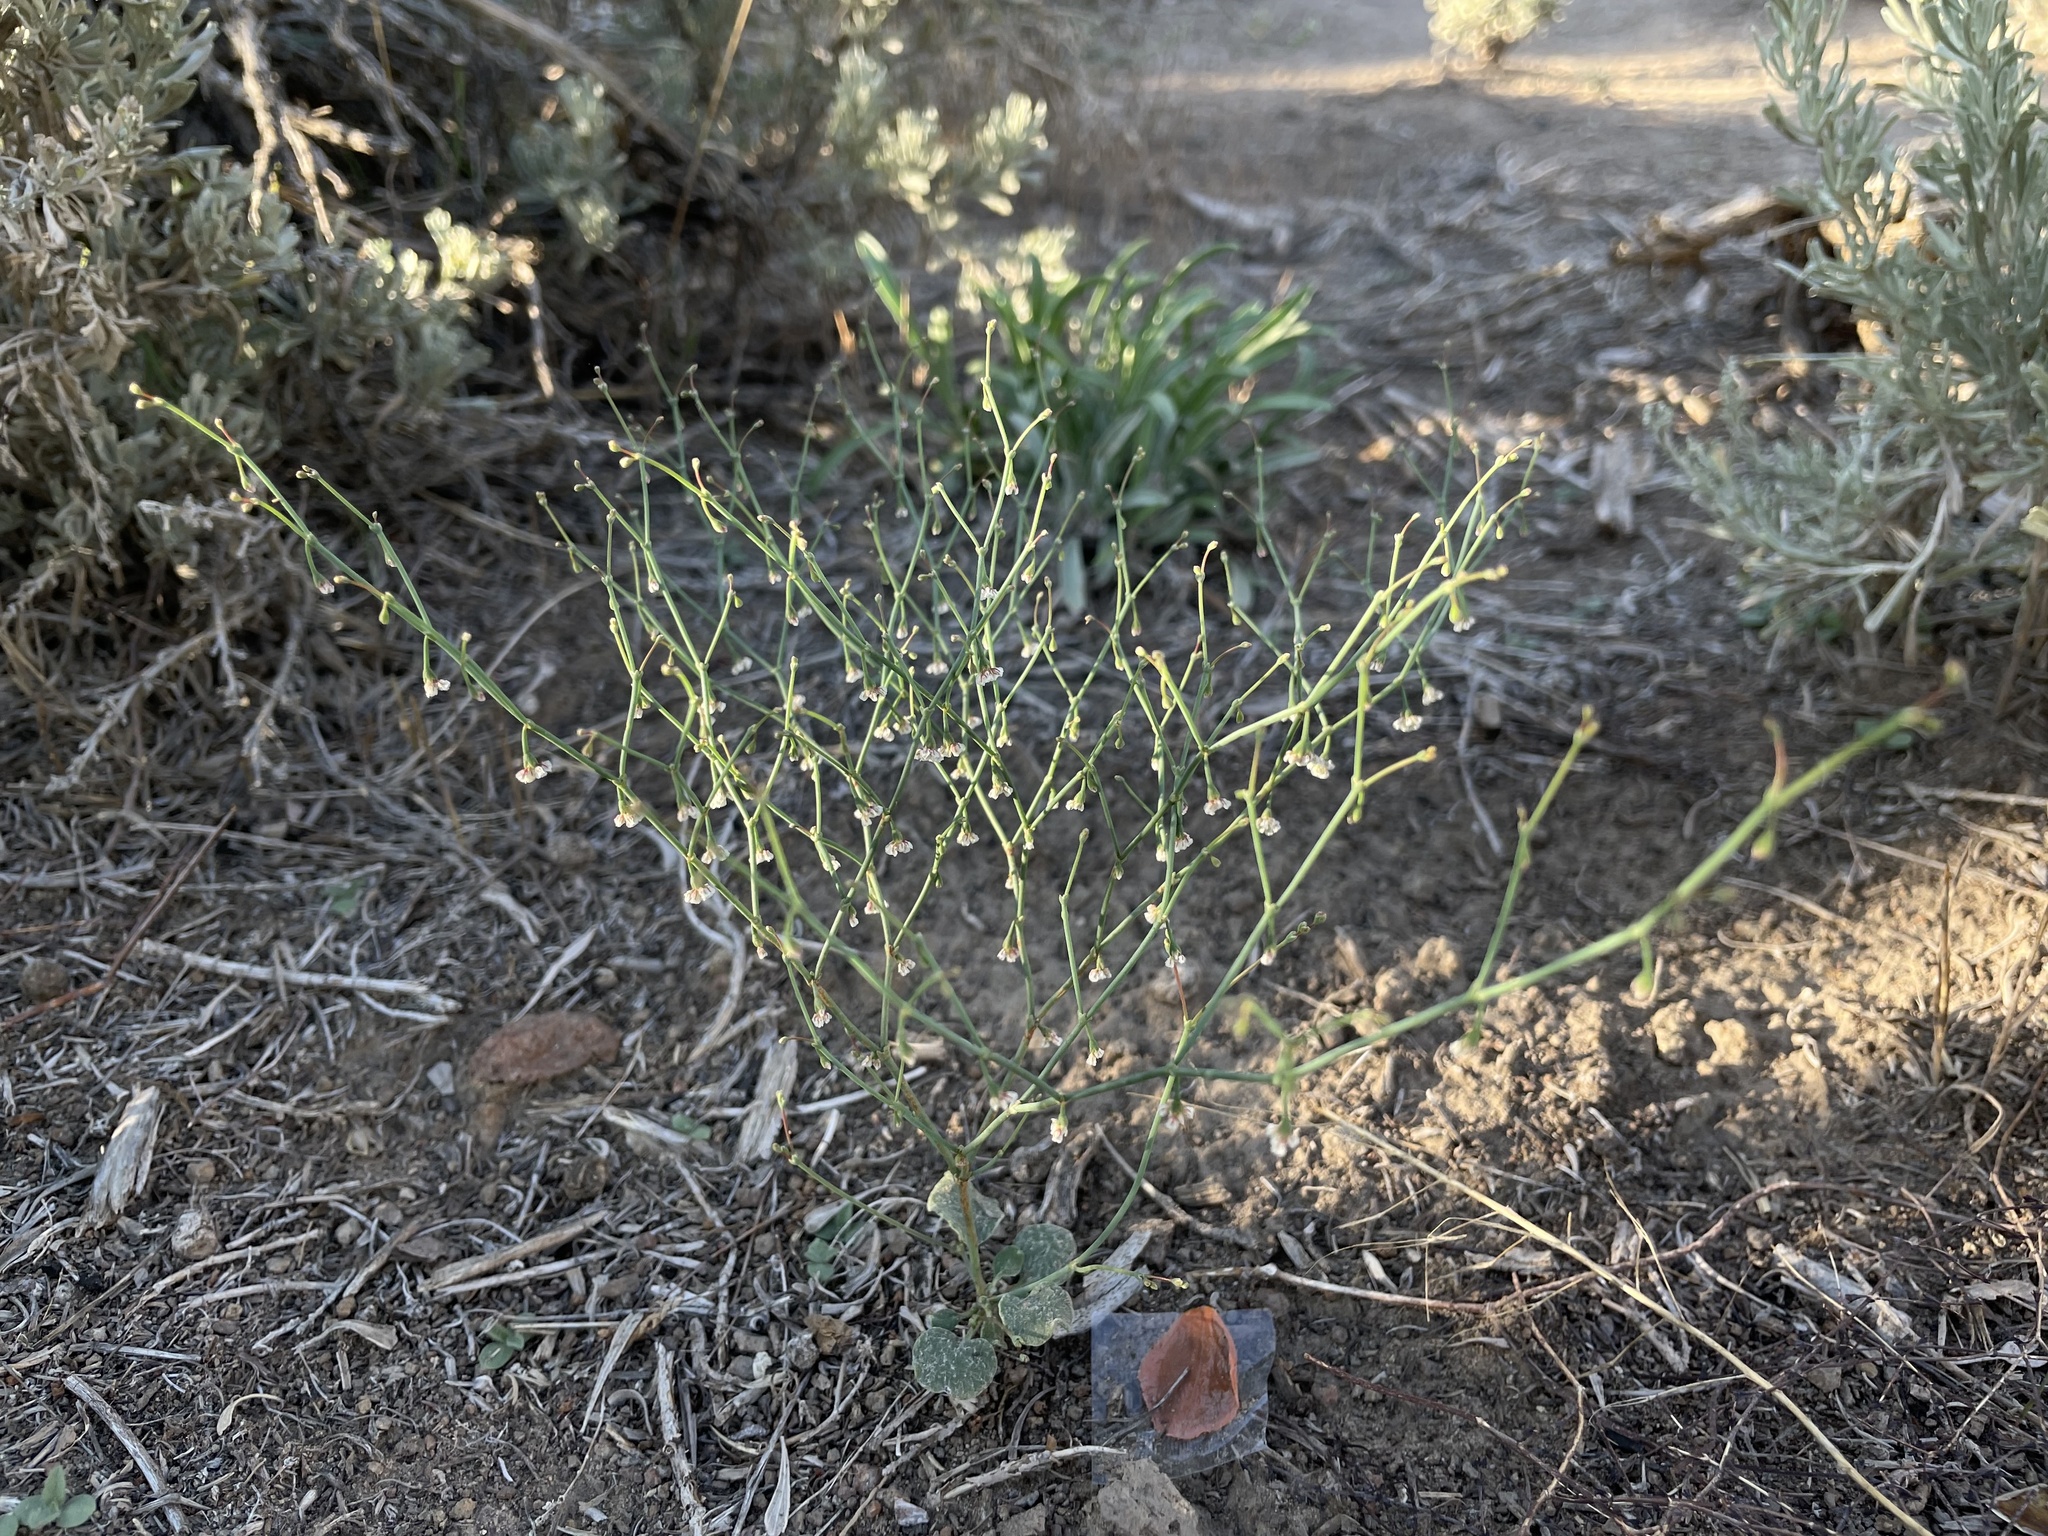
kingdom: Plantae
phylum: Tracheophyta
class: Magnoliopsida
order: Caryophyllales
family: Polygonaceae
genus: Eriogonum
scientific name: Eriogonum cernuum
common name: Nodding wild buckwheat
